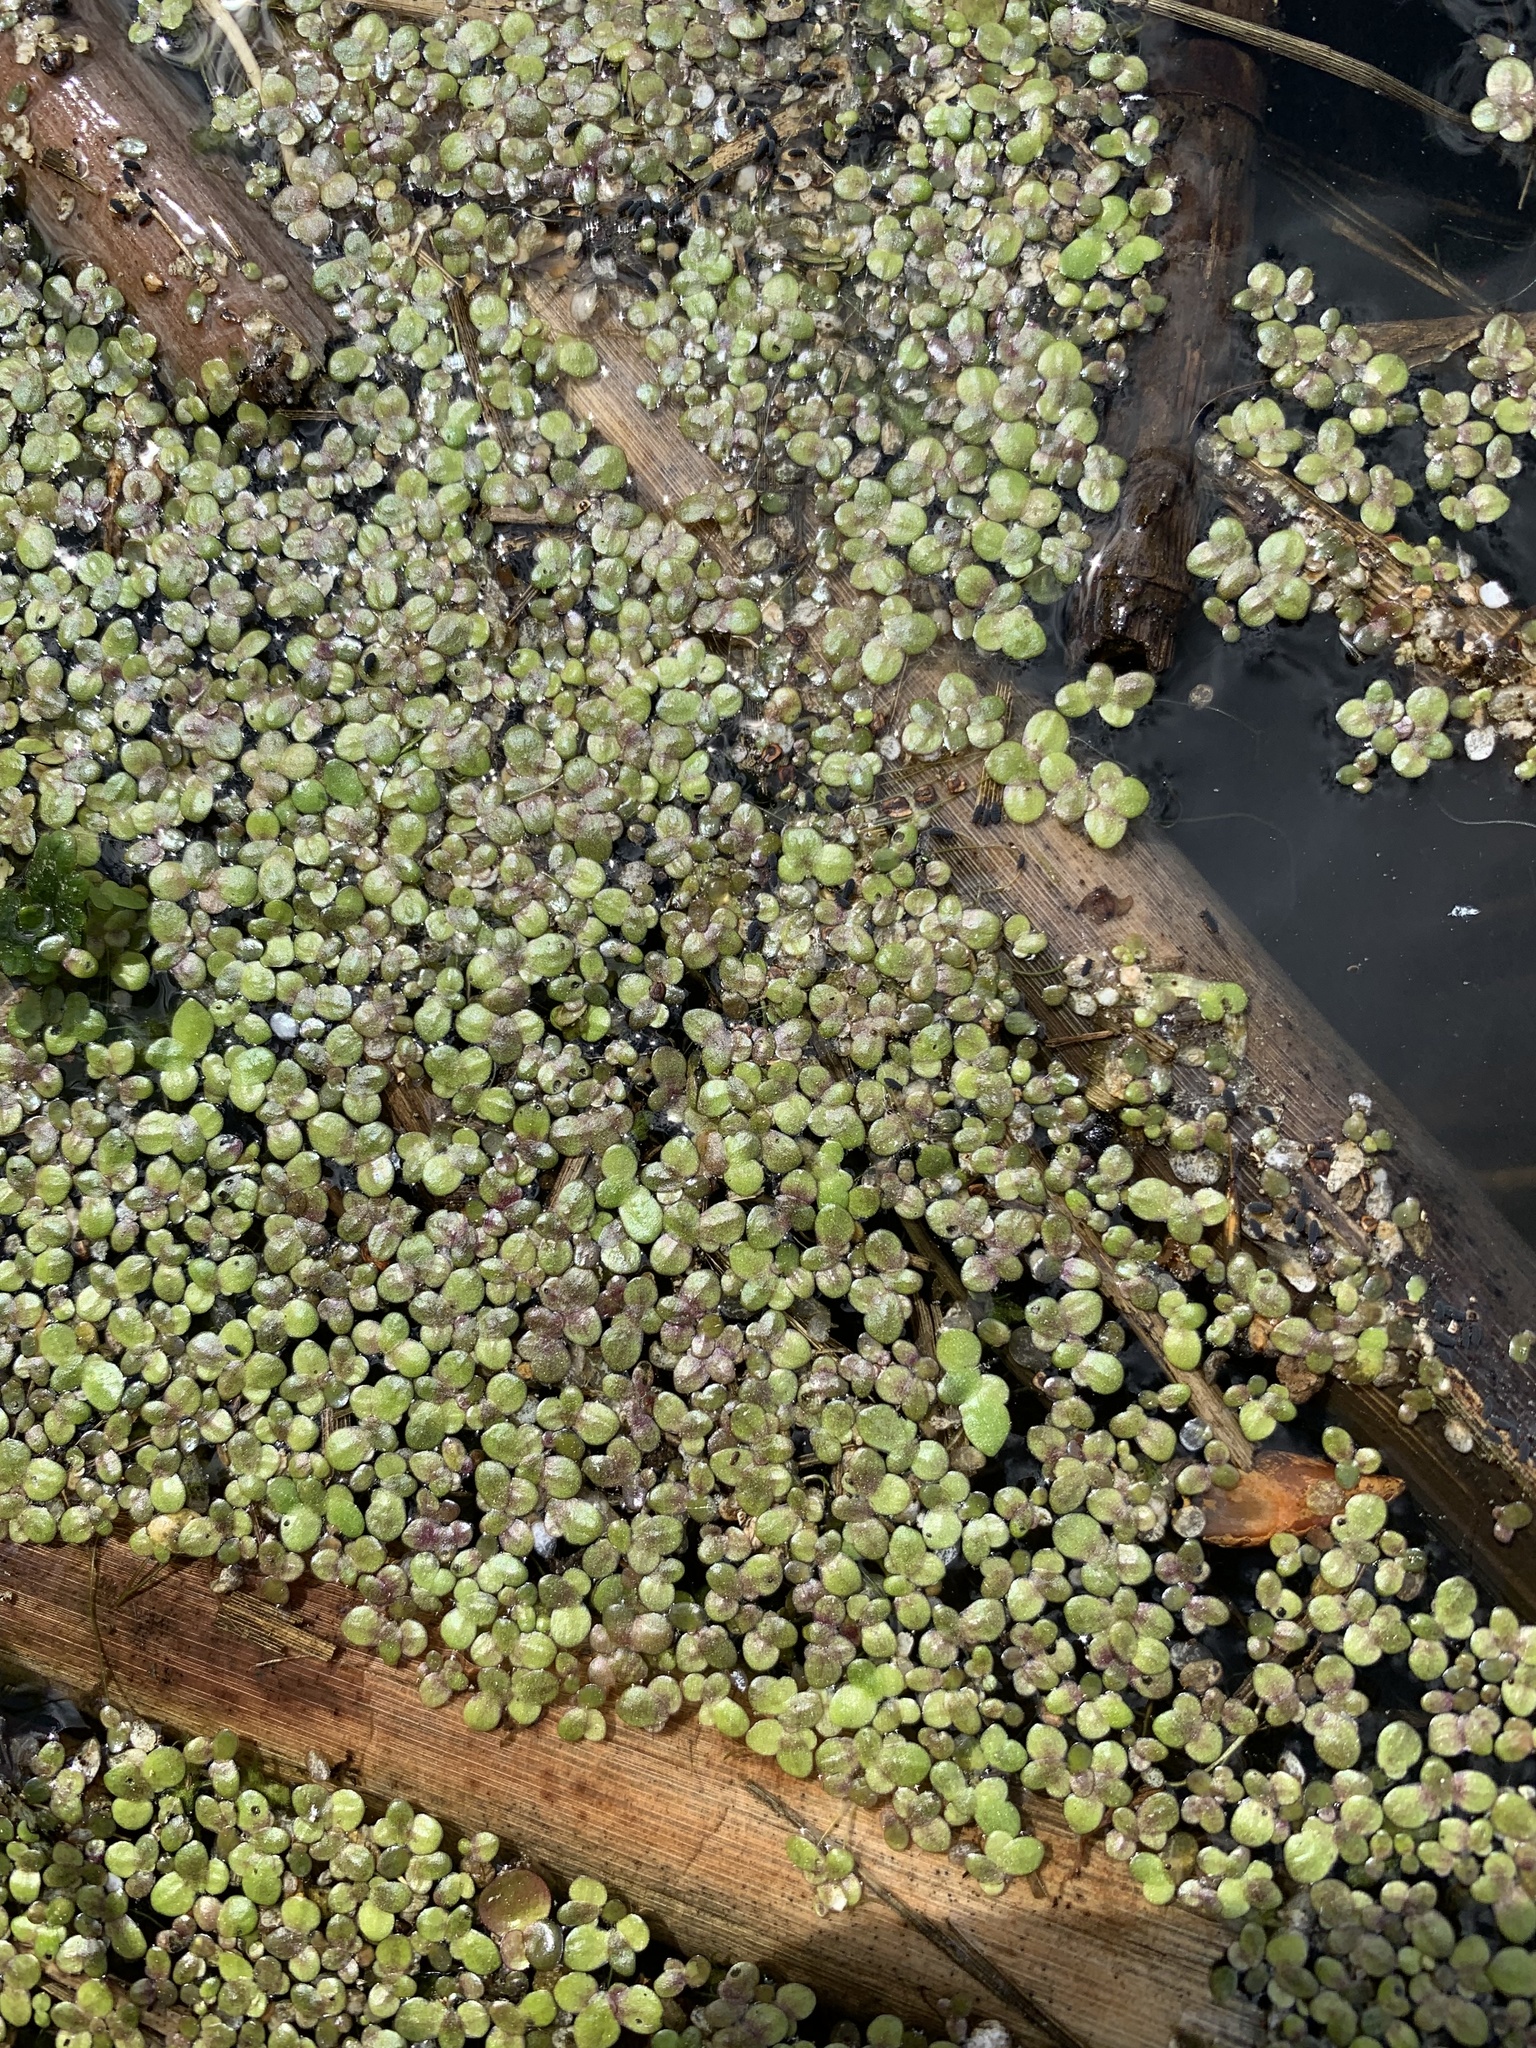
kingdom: Plantae
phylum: Tracheophyta
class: Liliopsida
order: Alismatales
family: Araceae
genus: Lemna
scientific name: Lemna turionifera
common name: Perennial duckweed
